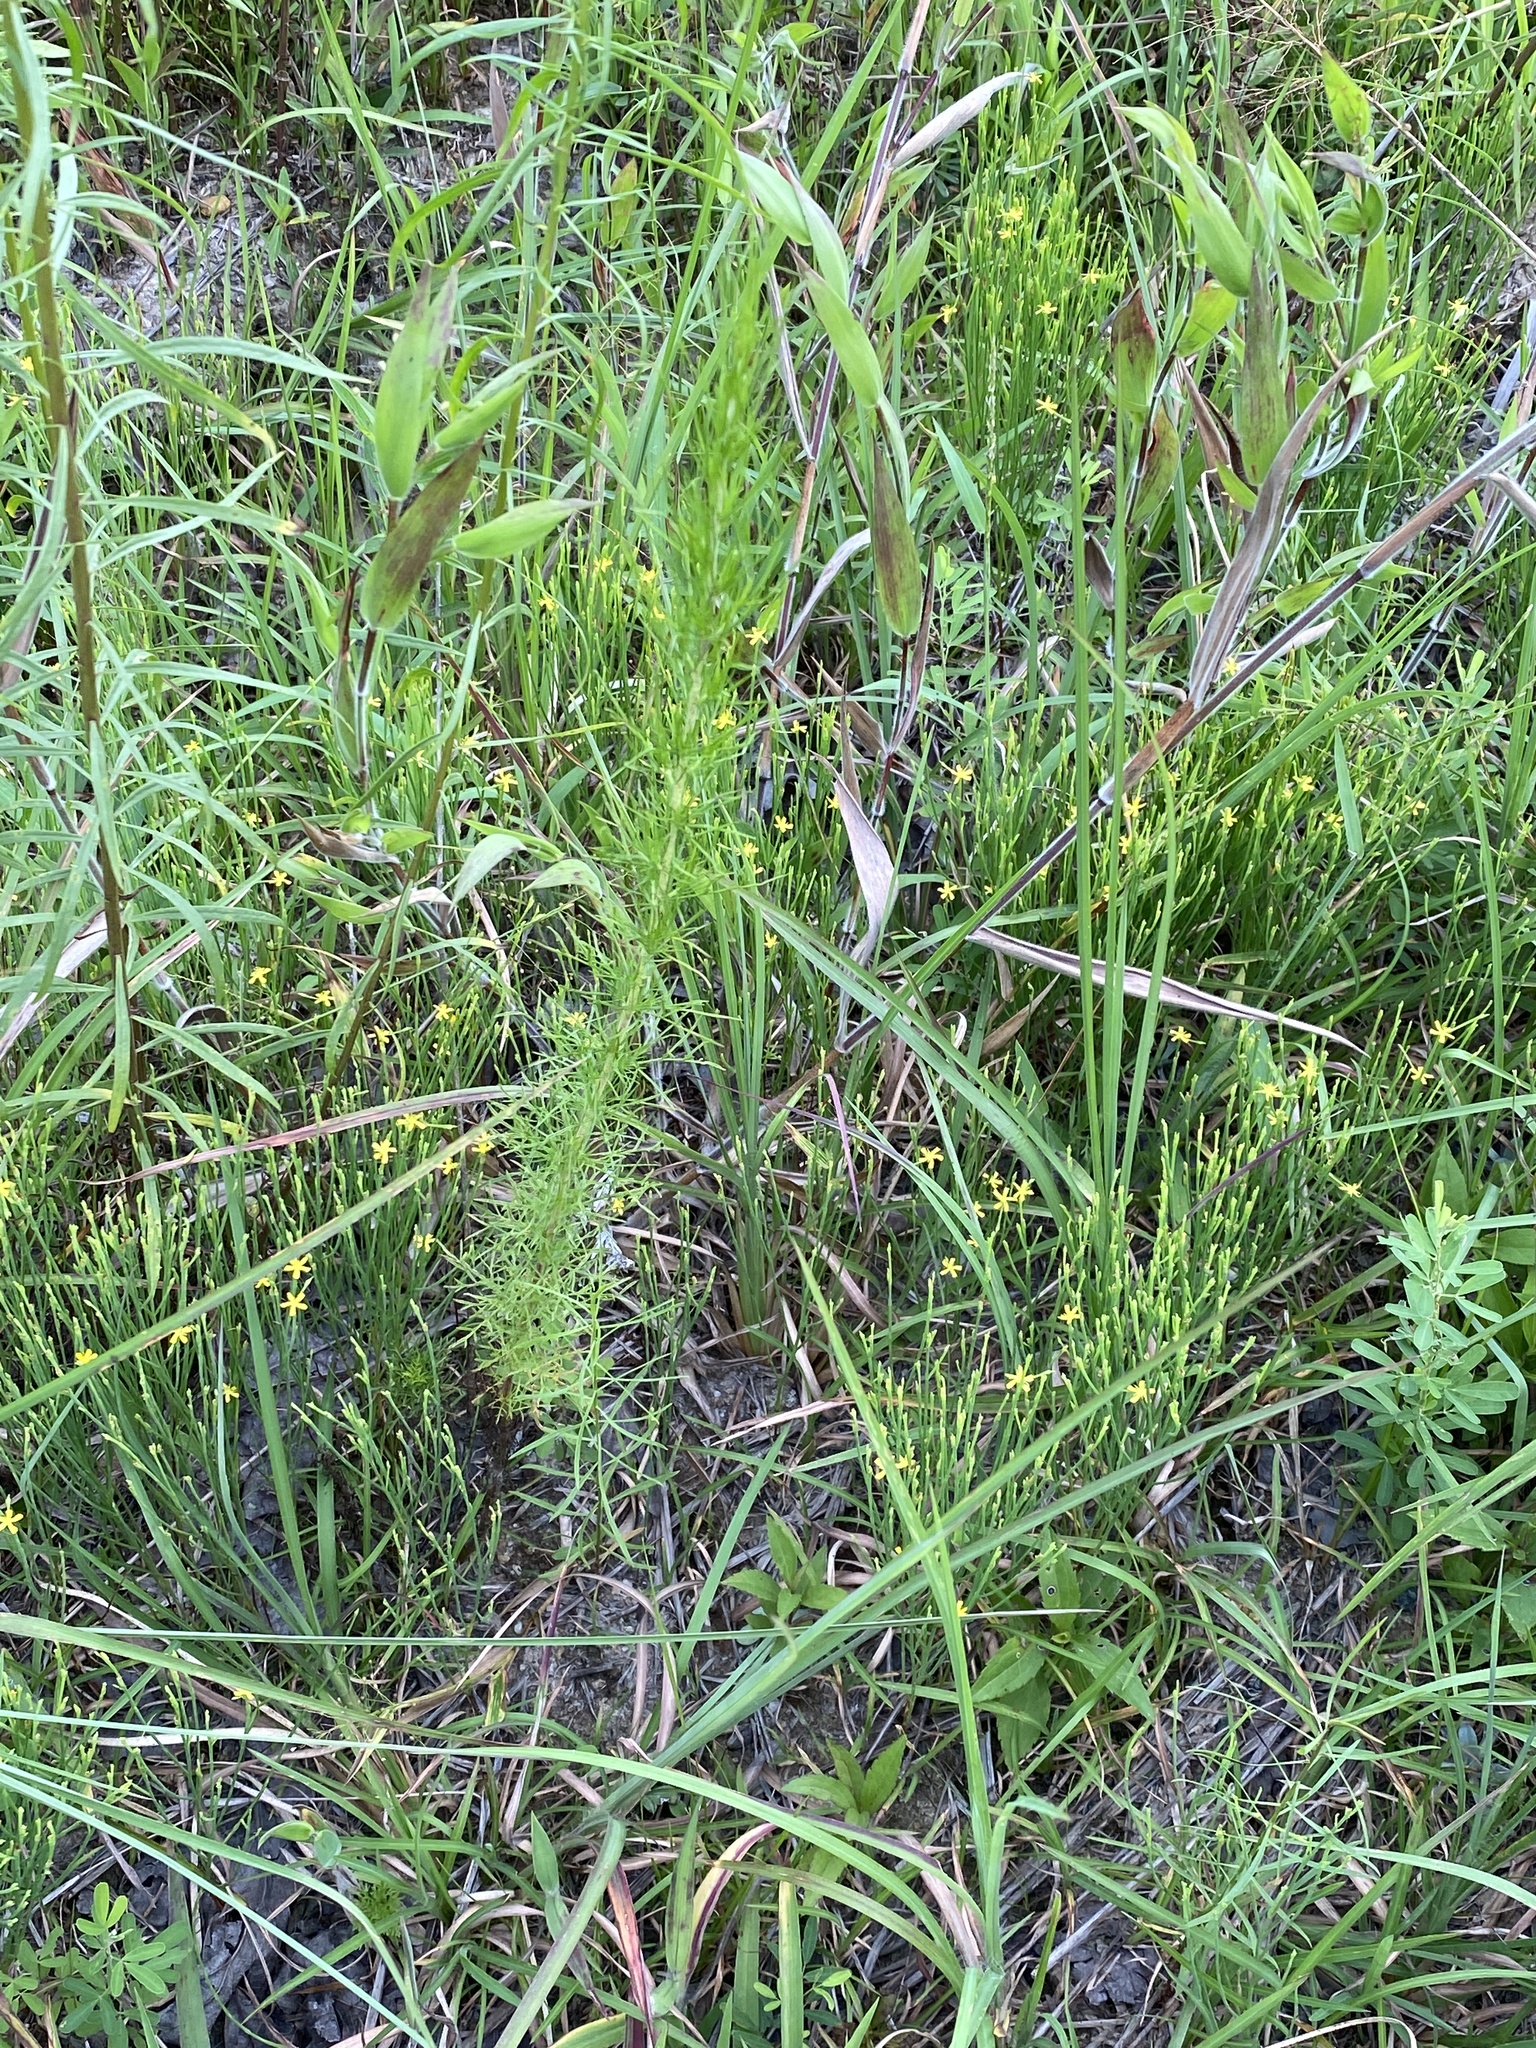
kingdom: Plantae
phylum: Tracheophyta
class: Magnoliopsida
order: Malpighiales
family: Hypericaceae
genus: Hypericum
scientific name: Hypericum gentianoides
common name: Gentian-leaved st. john's-wort
